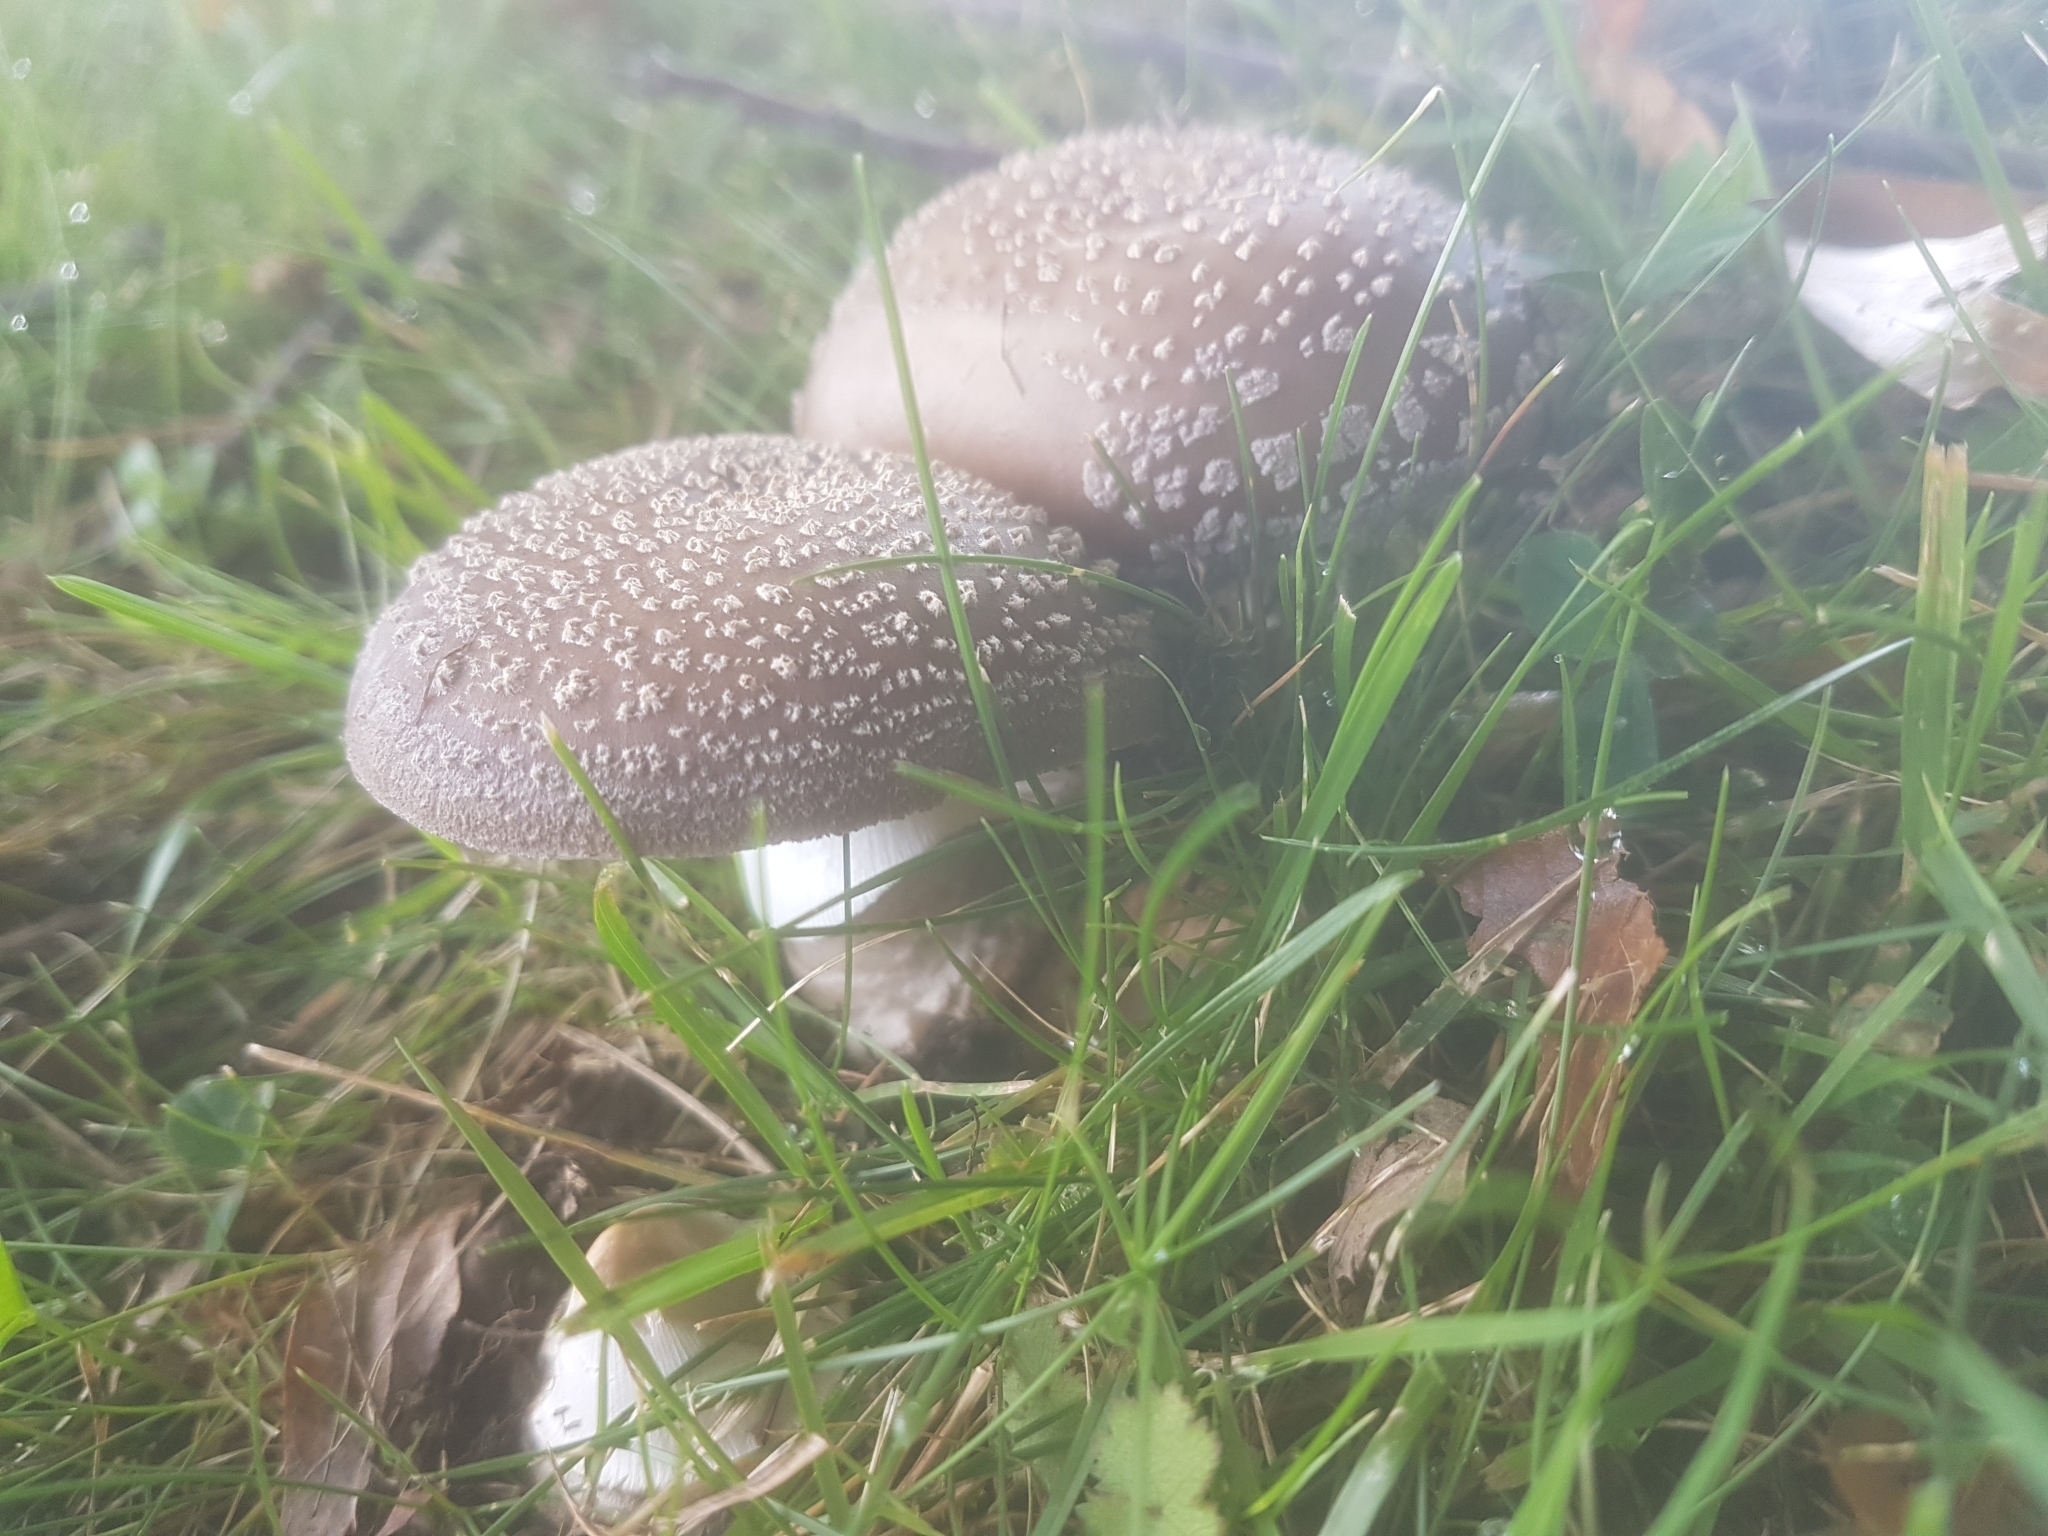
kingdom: Fungi
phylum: Basidiomycota
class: Agaricomycetes
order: Agaricales
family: Amanitaceae
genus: Amanita
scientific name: Amanita excelsa
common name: European false blusher
